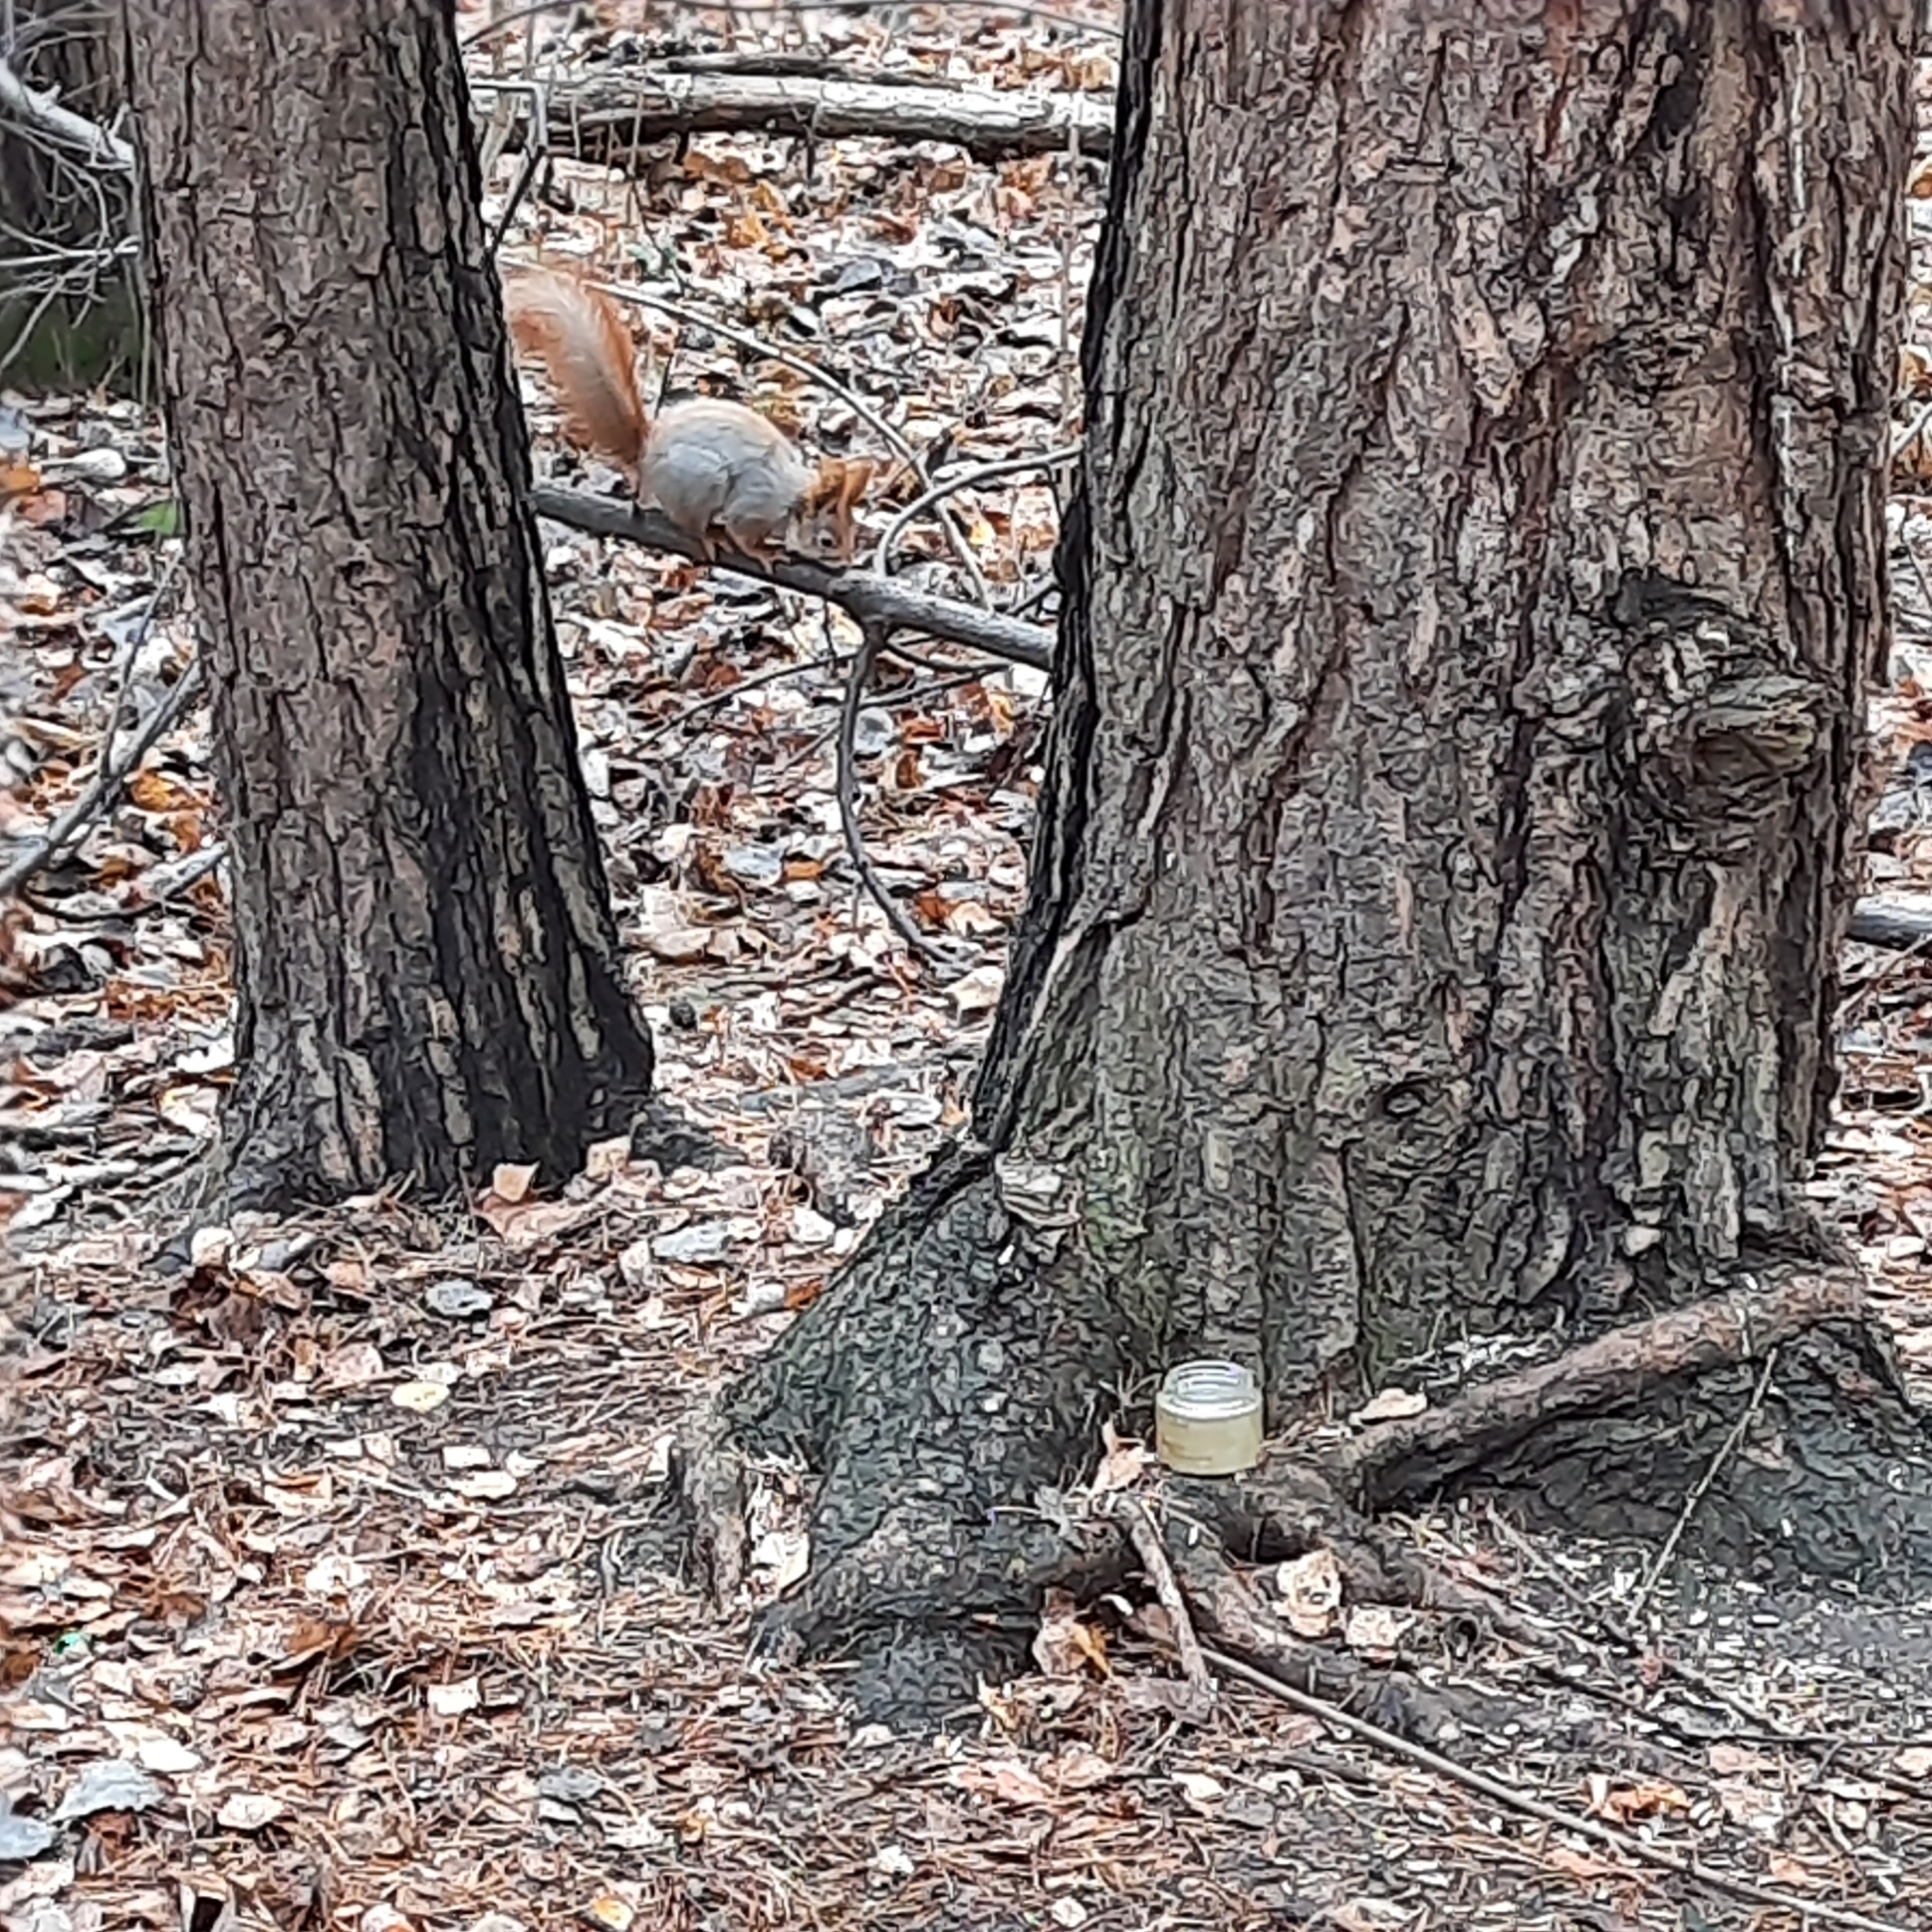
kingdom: Animalia
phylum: Chordata
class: Mammalia
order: Rodentia
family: Sciuridae
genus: Sciurus
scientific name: Sciurus vulgaris
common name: Eurasian red squirrel
